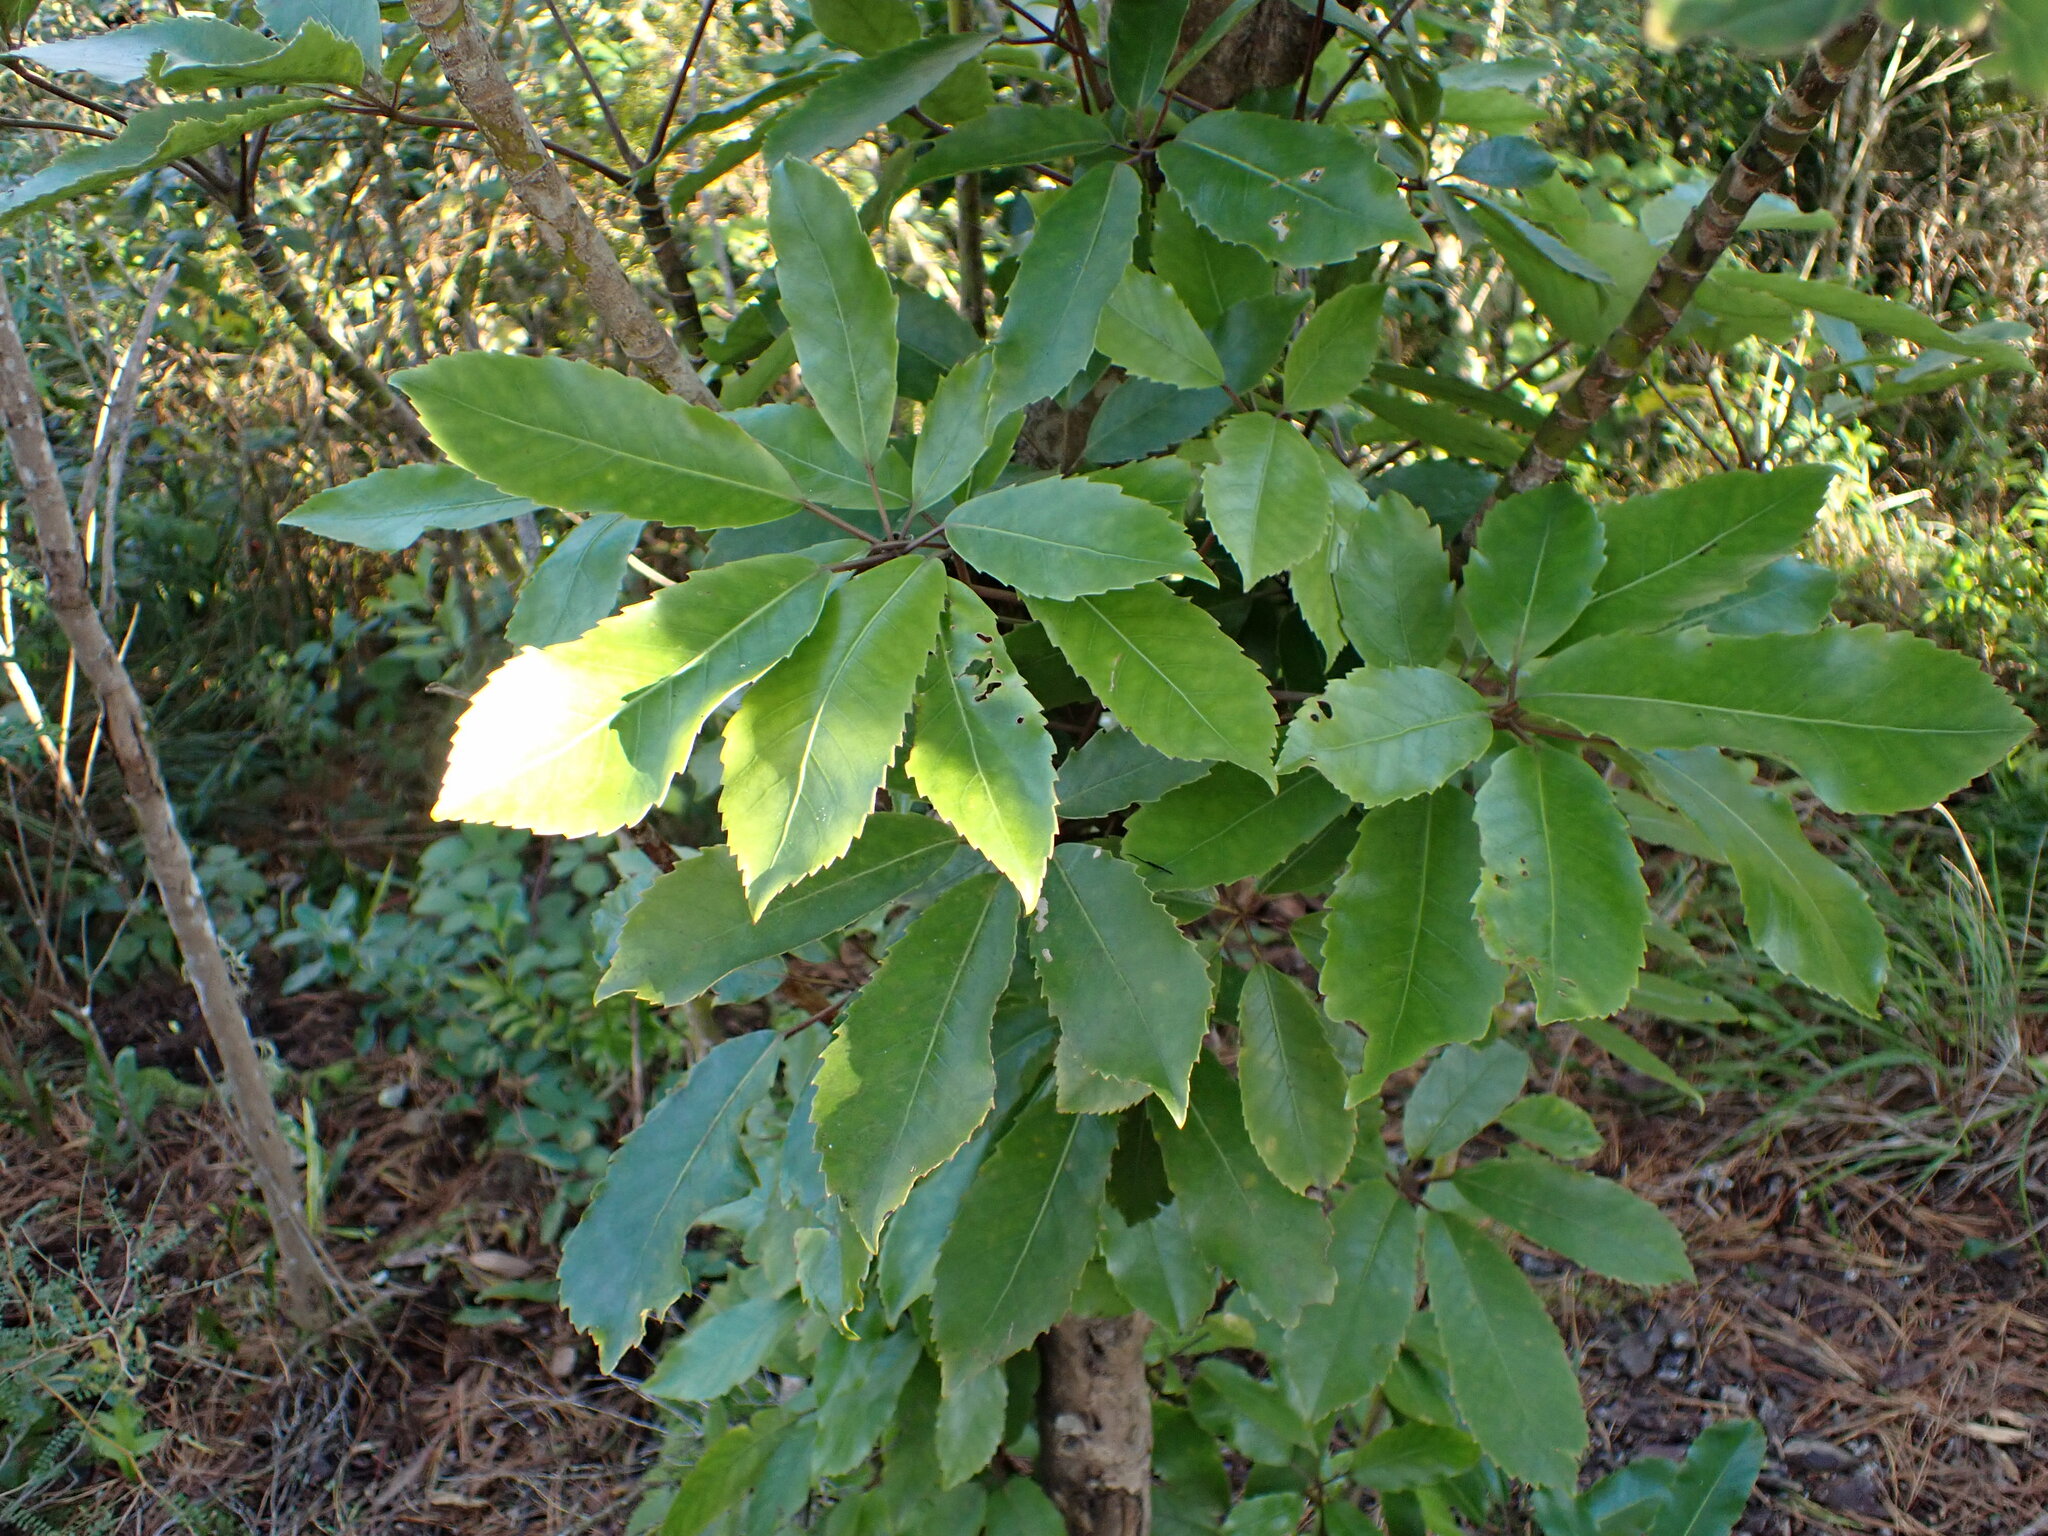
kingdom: Plantae
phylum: Tracheophyta
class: Magnoliopsida
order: Apiales
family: Araliaceae
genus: Neopanax
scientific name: Neopanax arboreus
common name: Five-fingers
